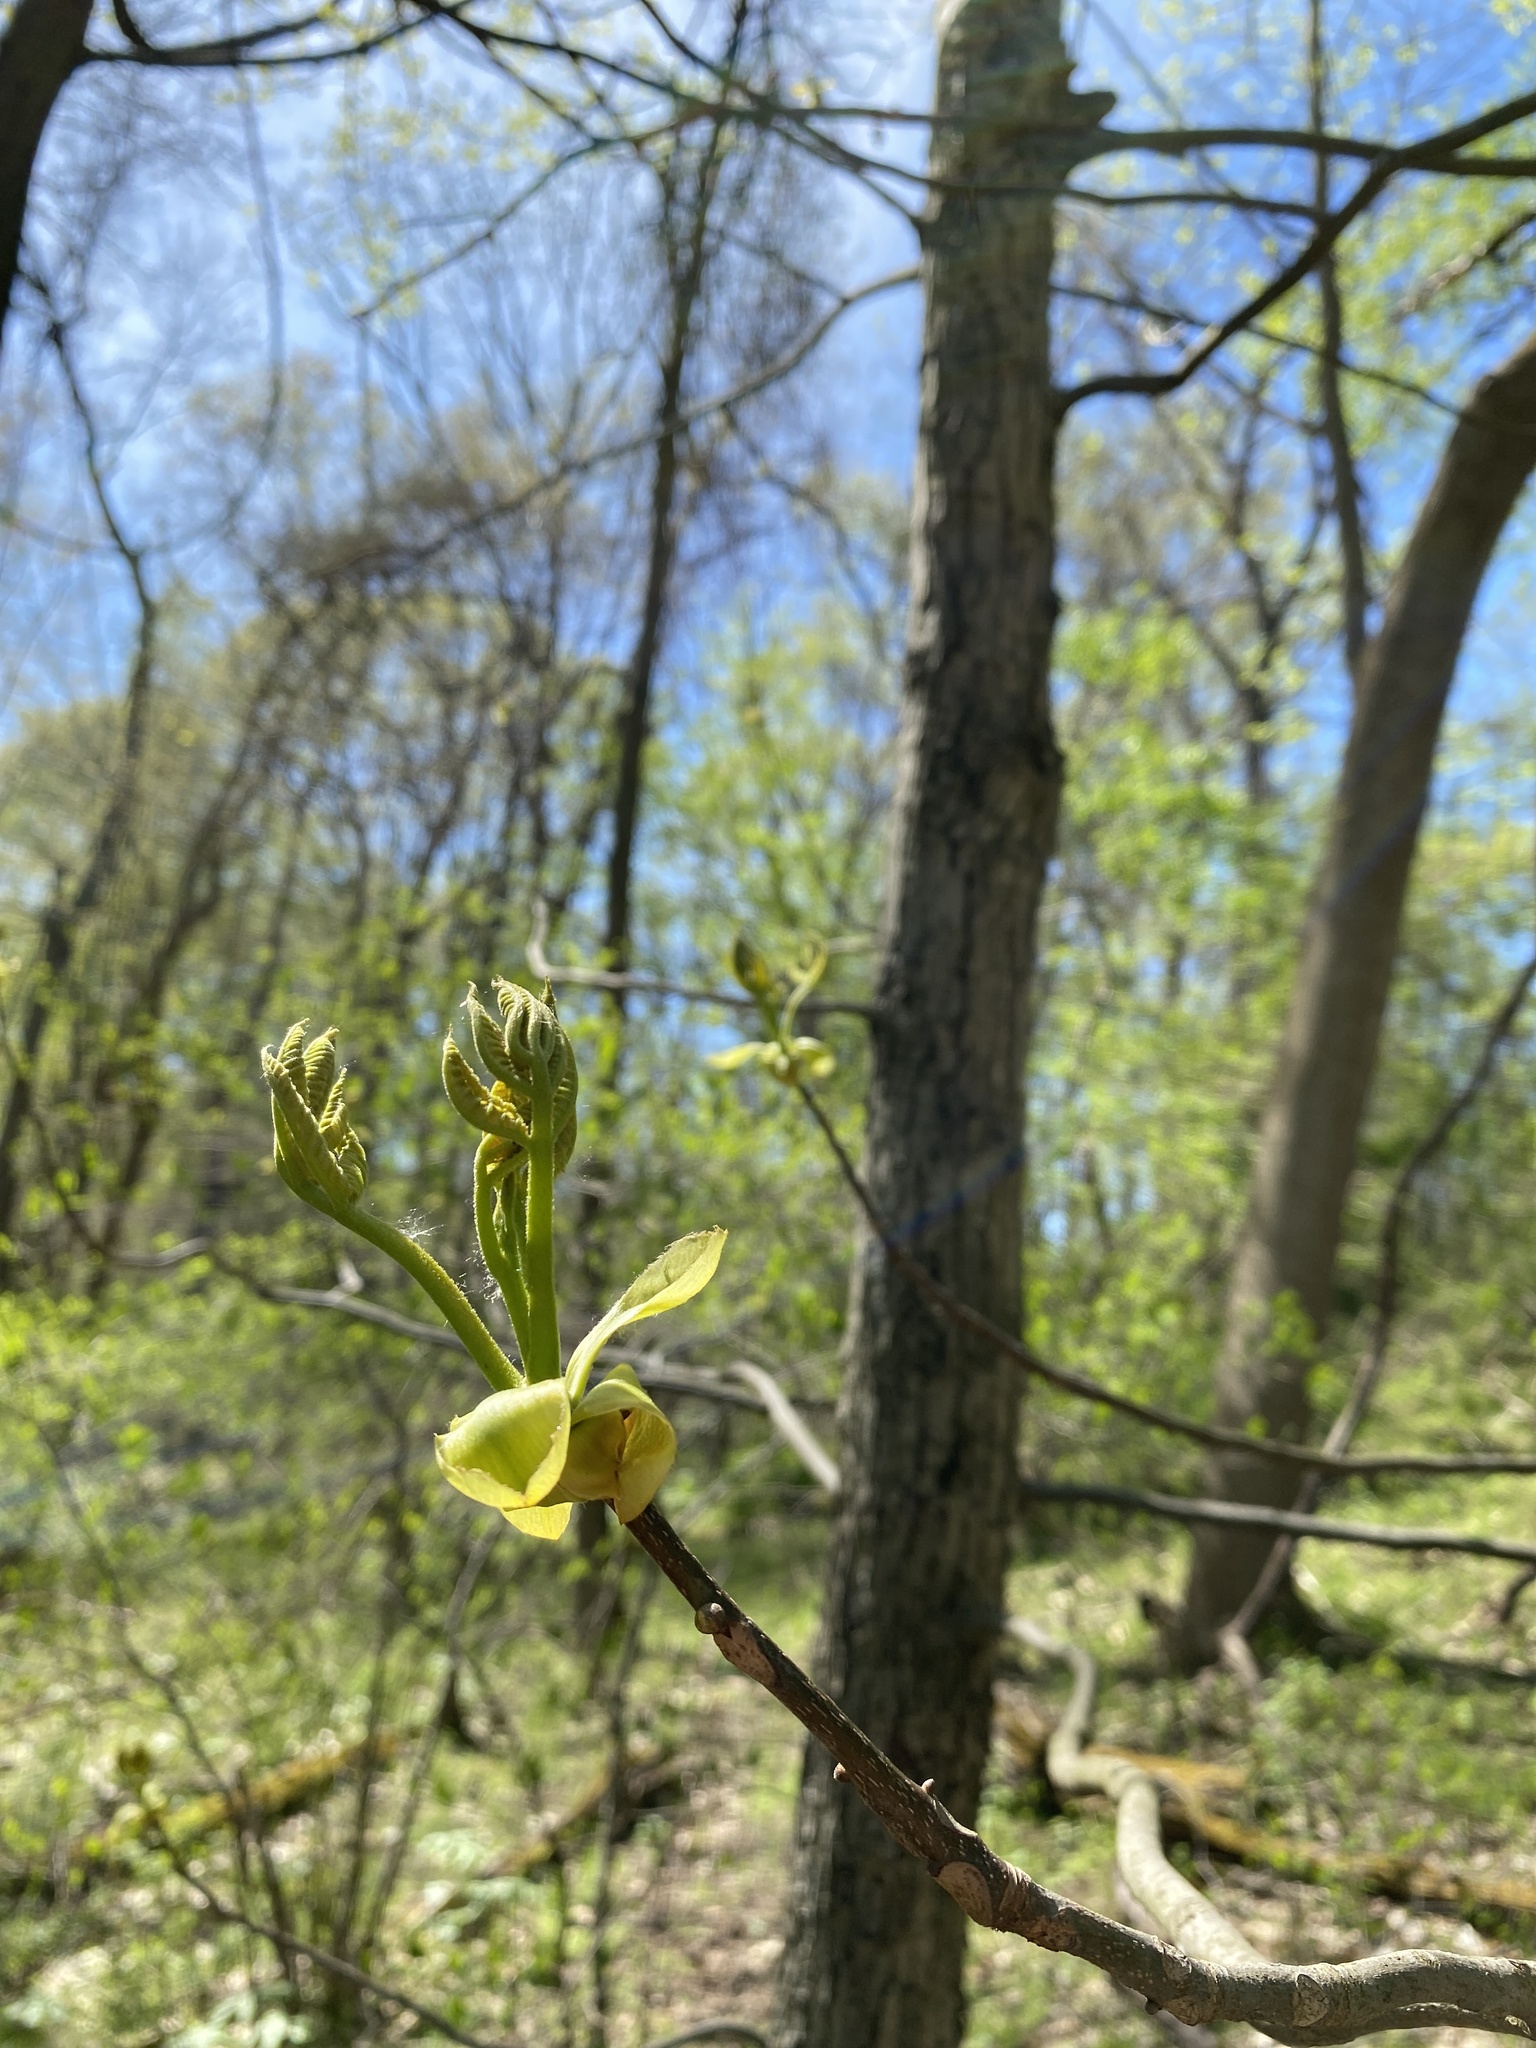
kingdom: Plantae
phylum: Tracheophyta
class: Magnoliopsida
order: Fagales
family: Juglandaceae
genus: Carya
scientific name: Carya cordiformis
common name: Bitternut hickory
